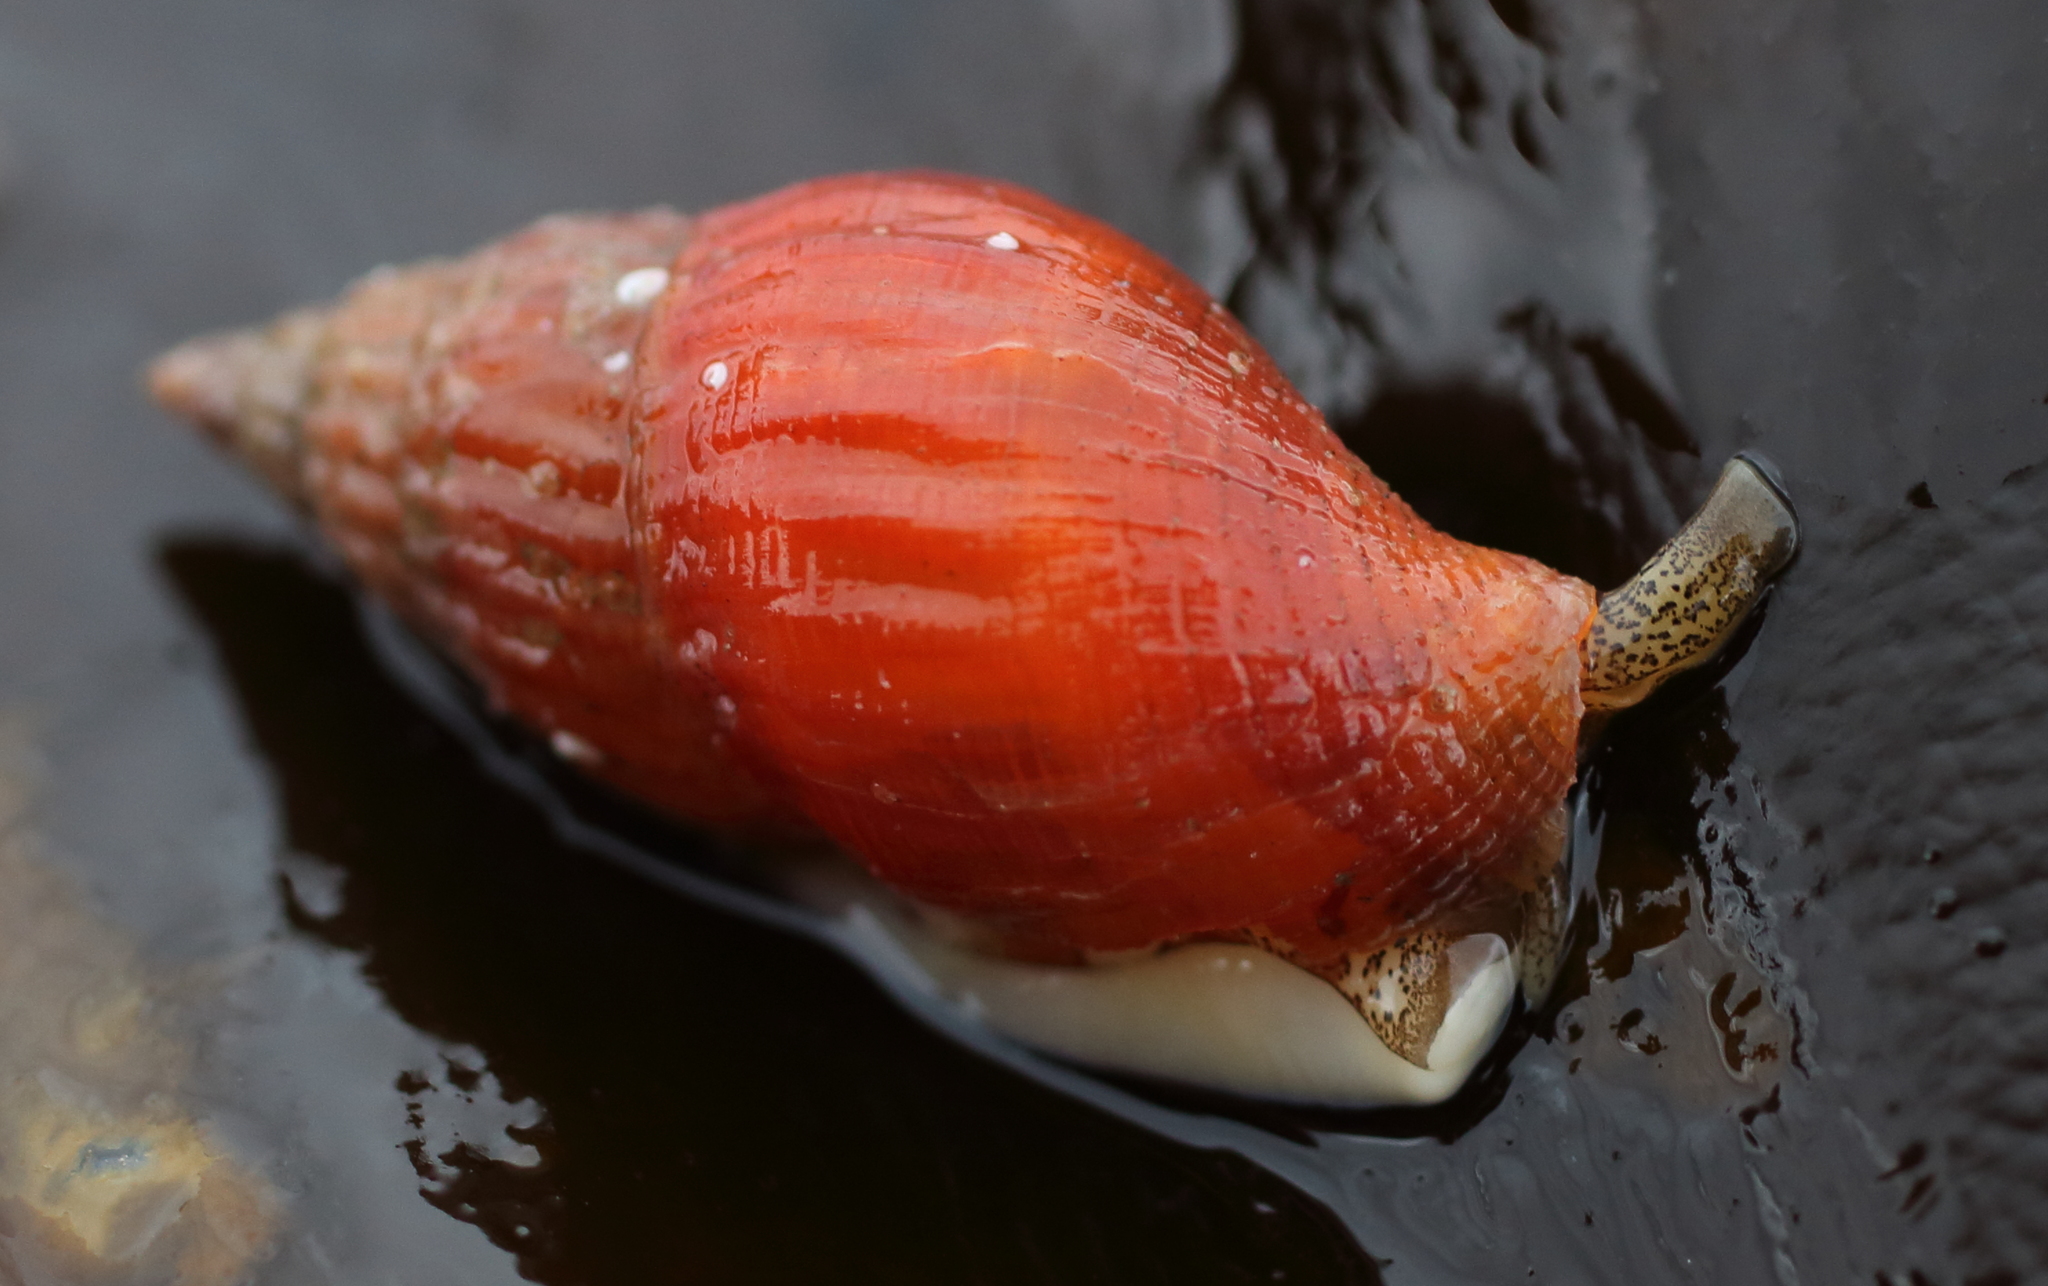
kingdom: Animalia
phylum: Mollusca
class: Gastropoda
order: Neogastropoda
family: Columbellidae
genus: Amphissa
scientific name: Amphissa columbiana
